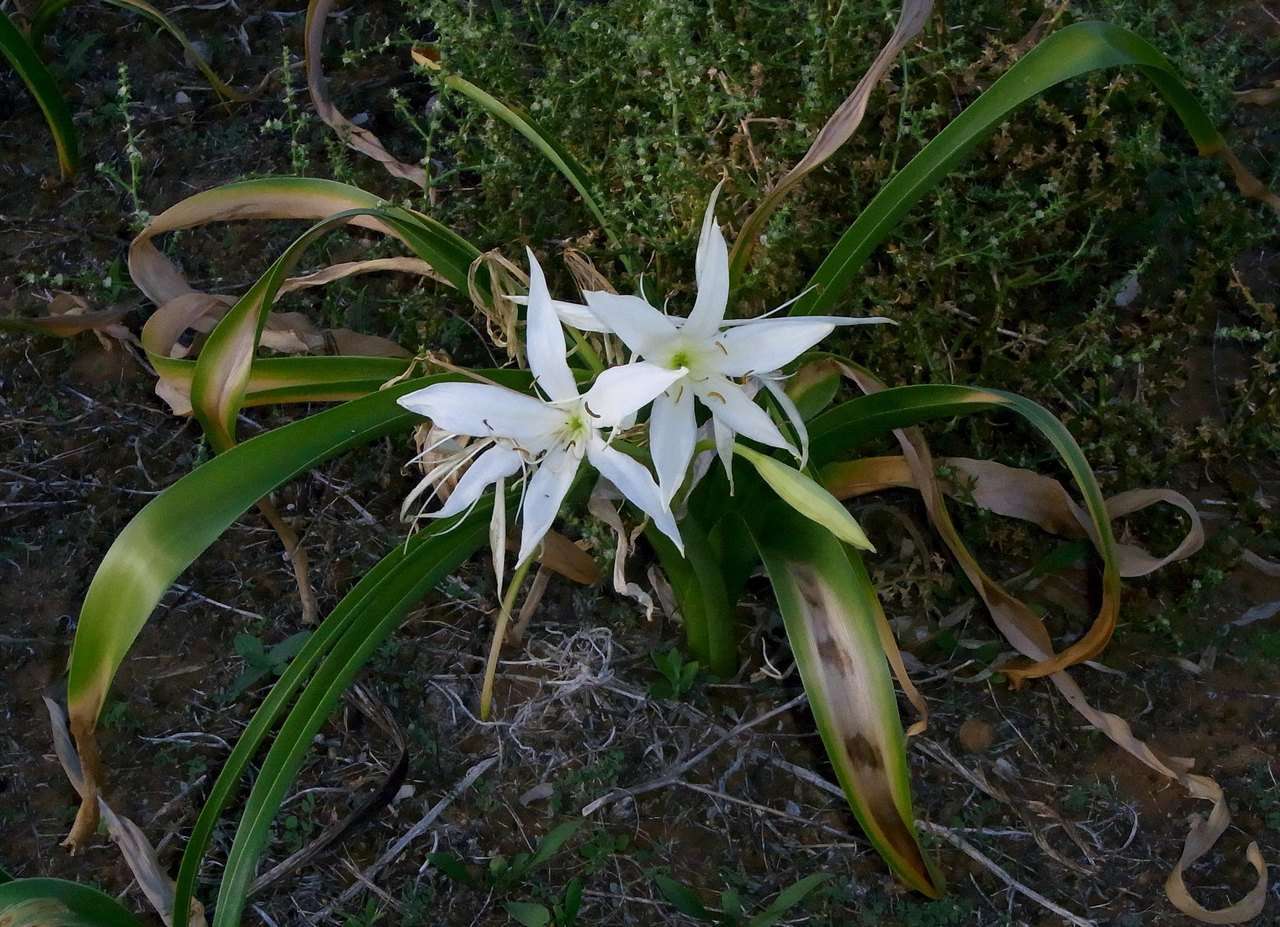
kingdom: Plantae
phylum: Tracheophyta
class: Liliopsida
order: Asparagales
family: Amaryllidaceae
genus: Crinum
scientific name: Crinum flaccidum
